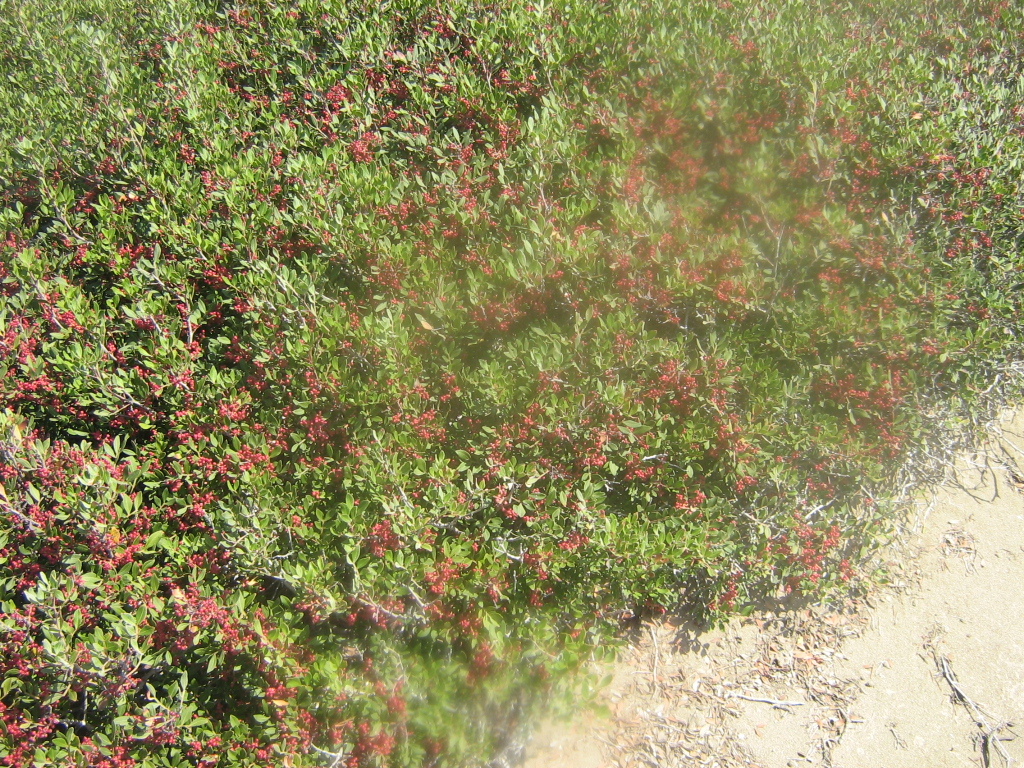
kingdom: Plantae
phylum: Tracheophyta
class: Magnoliopsida
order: Sapindales
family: Anacardiaceae
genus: Pistacia
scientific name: Pistacia lentiscus
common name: Lentisk
